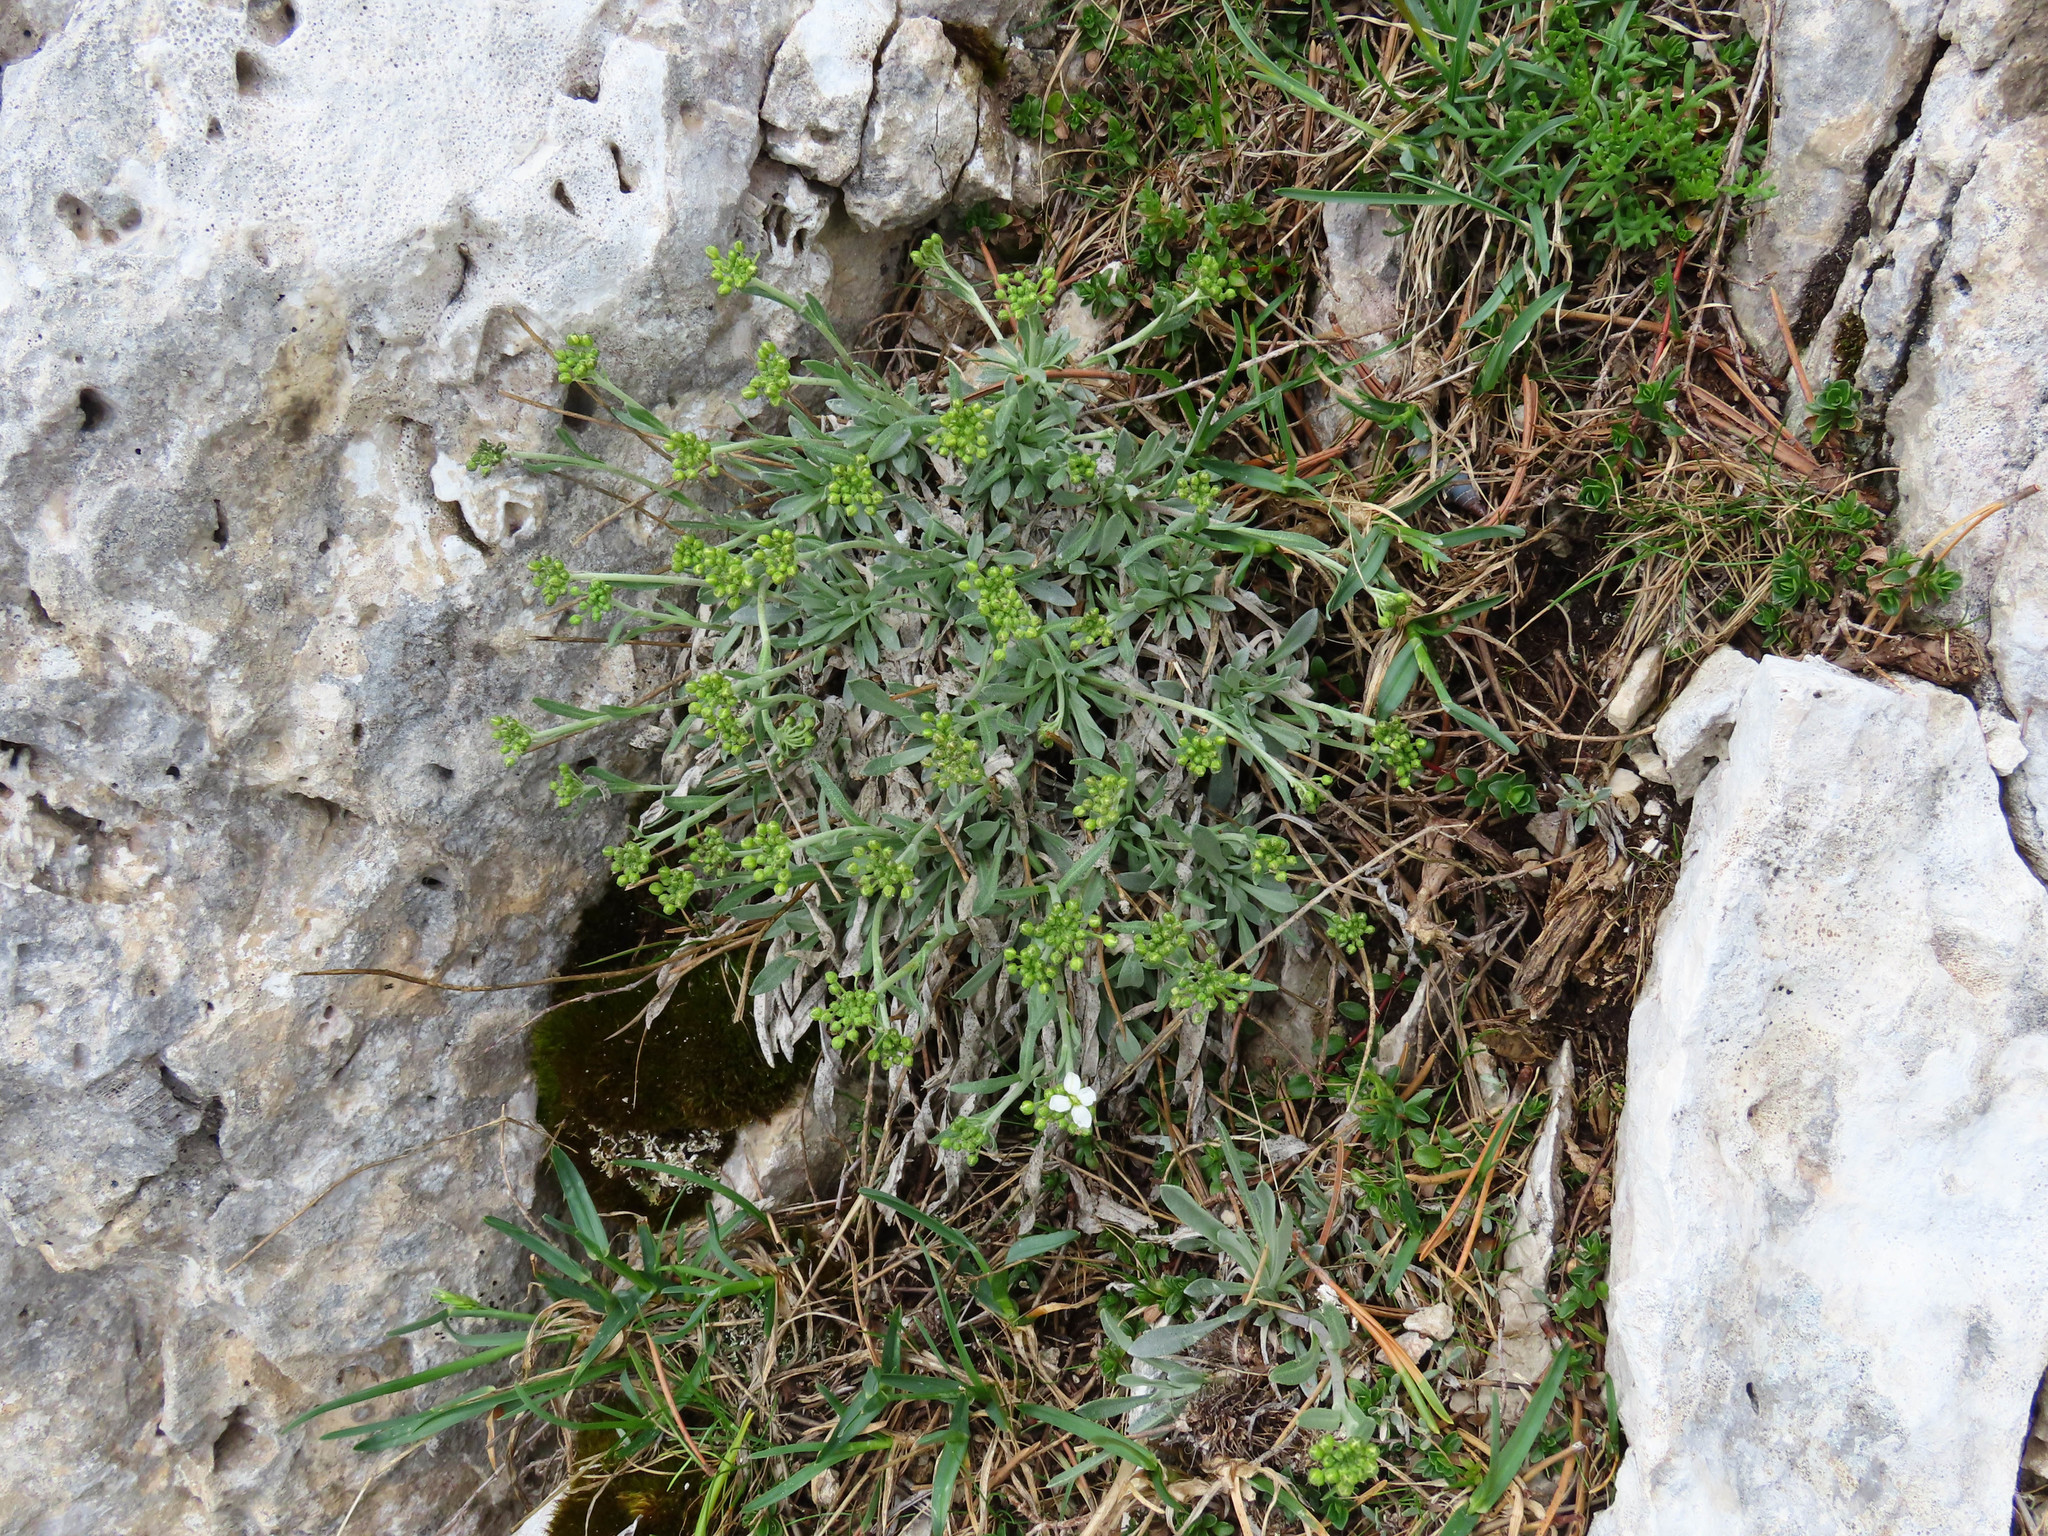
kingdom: Plantae
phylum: Tracheophyta
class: Magnoliopsida
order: Brassicales
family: Brassicaceae
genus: Phyllolepidium
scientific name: Phyllolepidium rupestre
